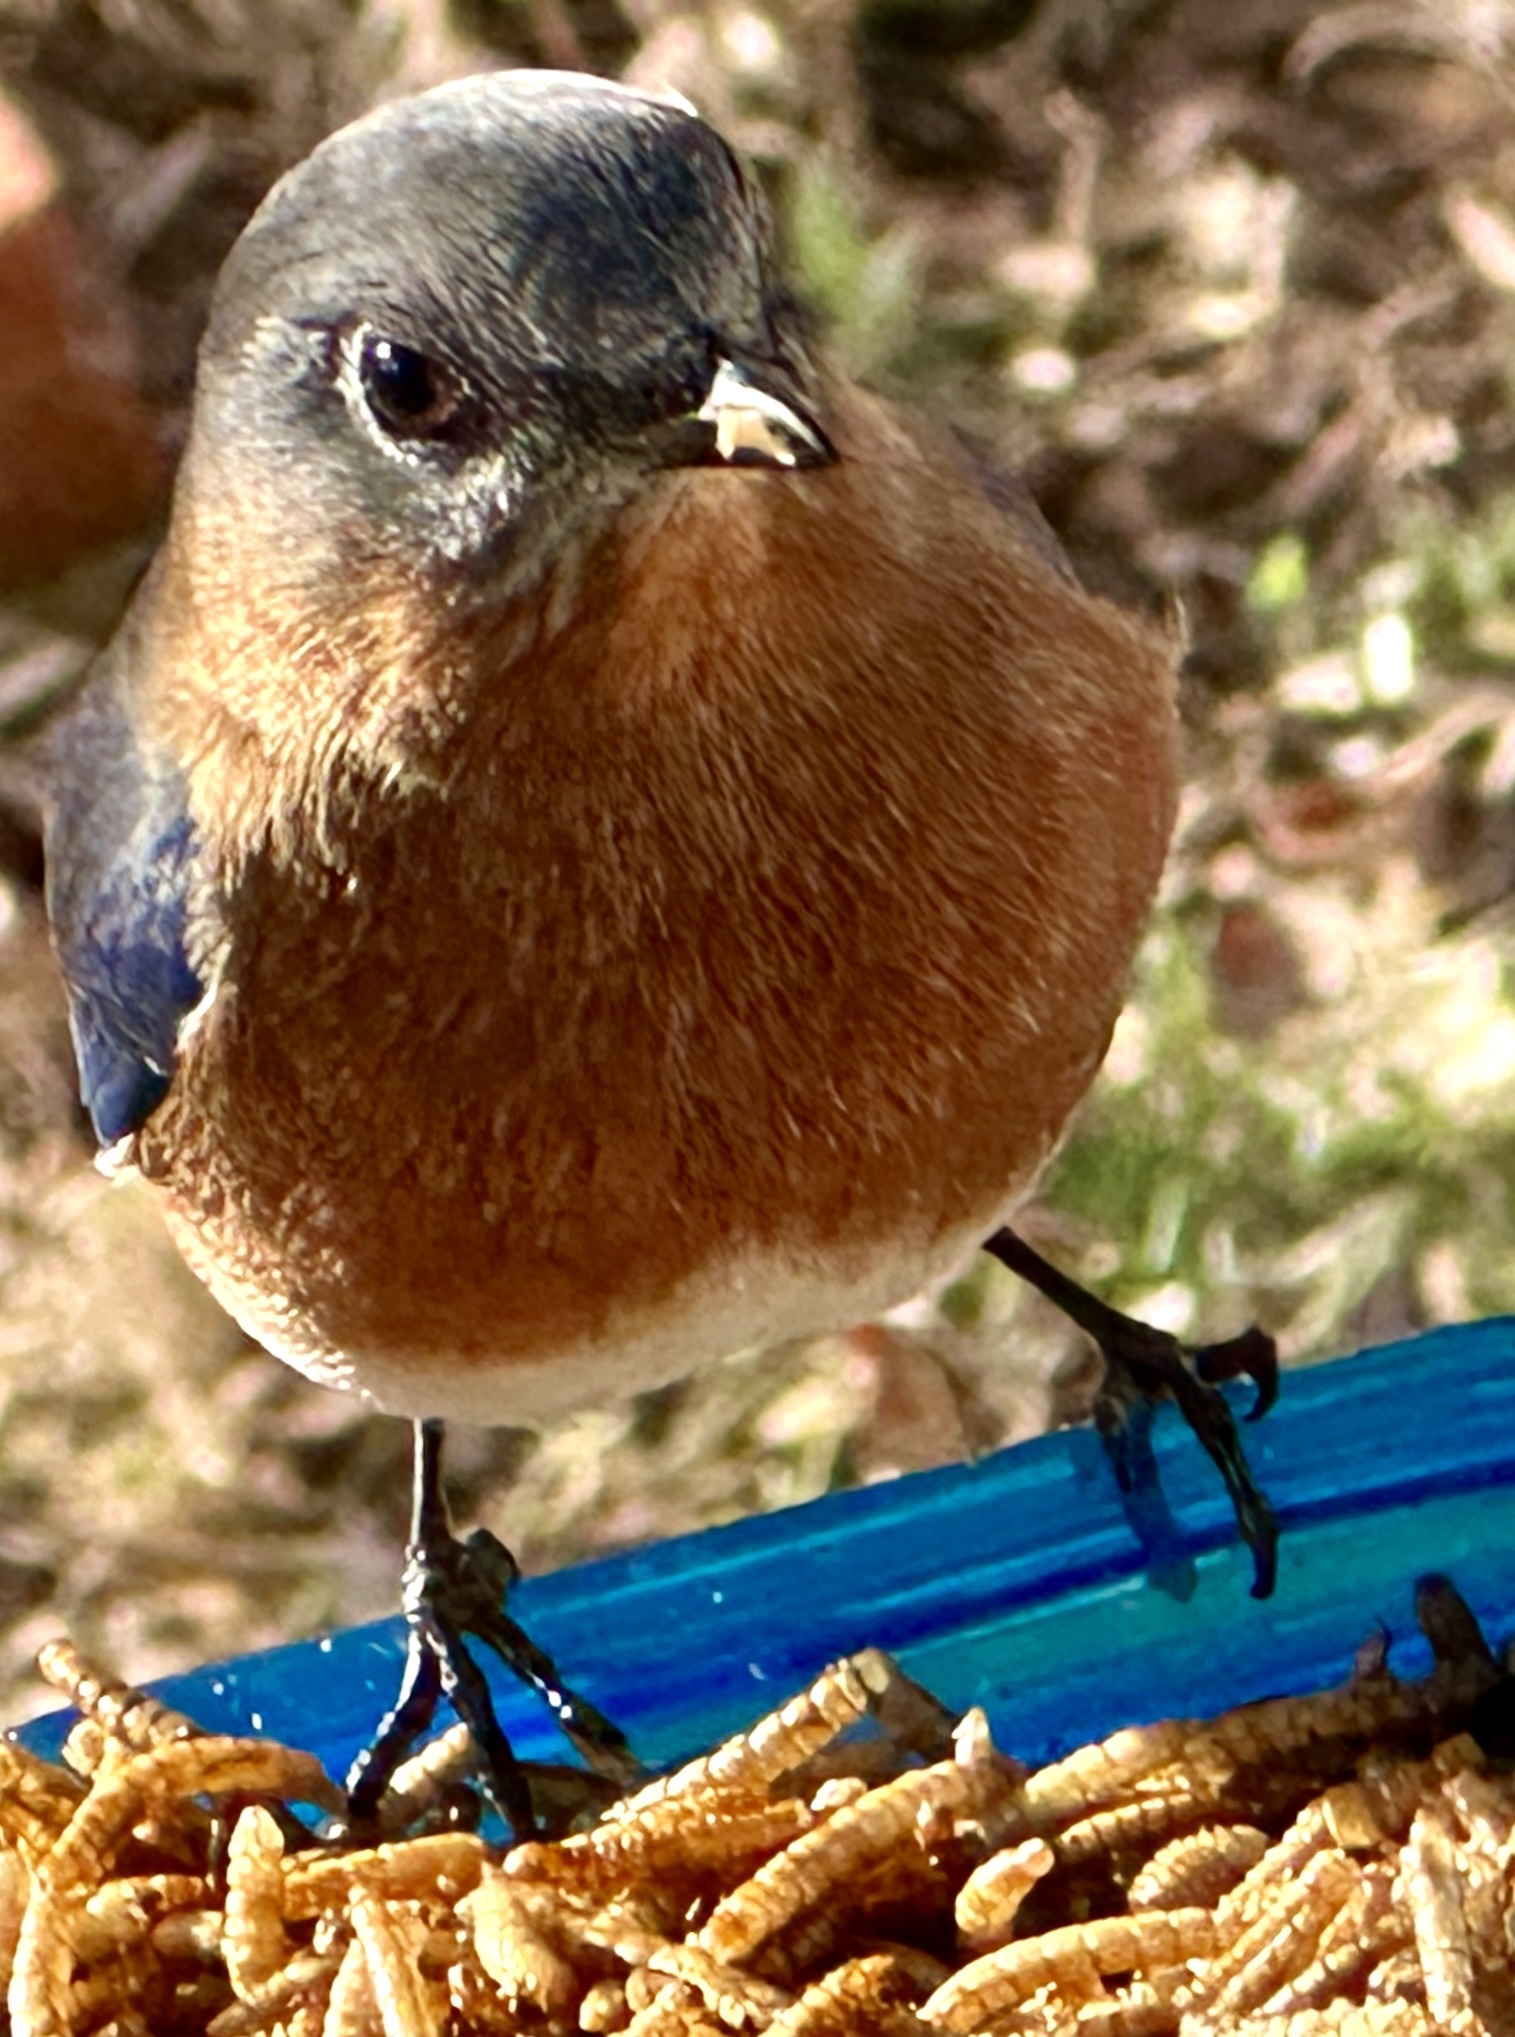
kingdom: Animalia
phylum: Chordata
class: Aves
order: Passeriformes
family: Turdidae
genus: Sialia
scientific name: Sialia sialis
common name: Eastern bluebird
